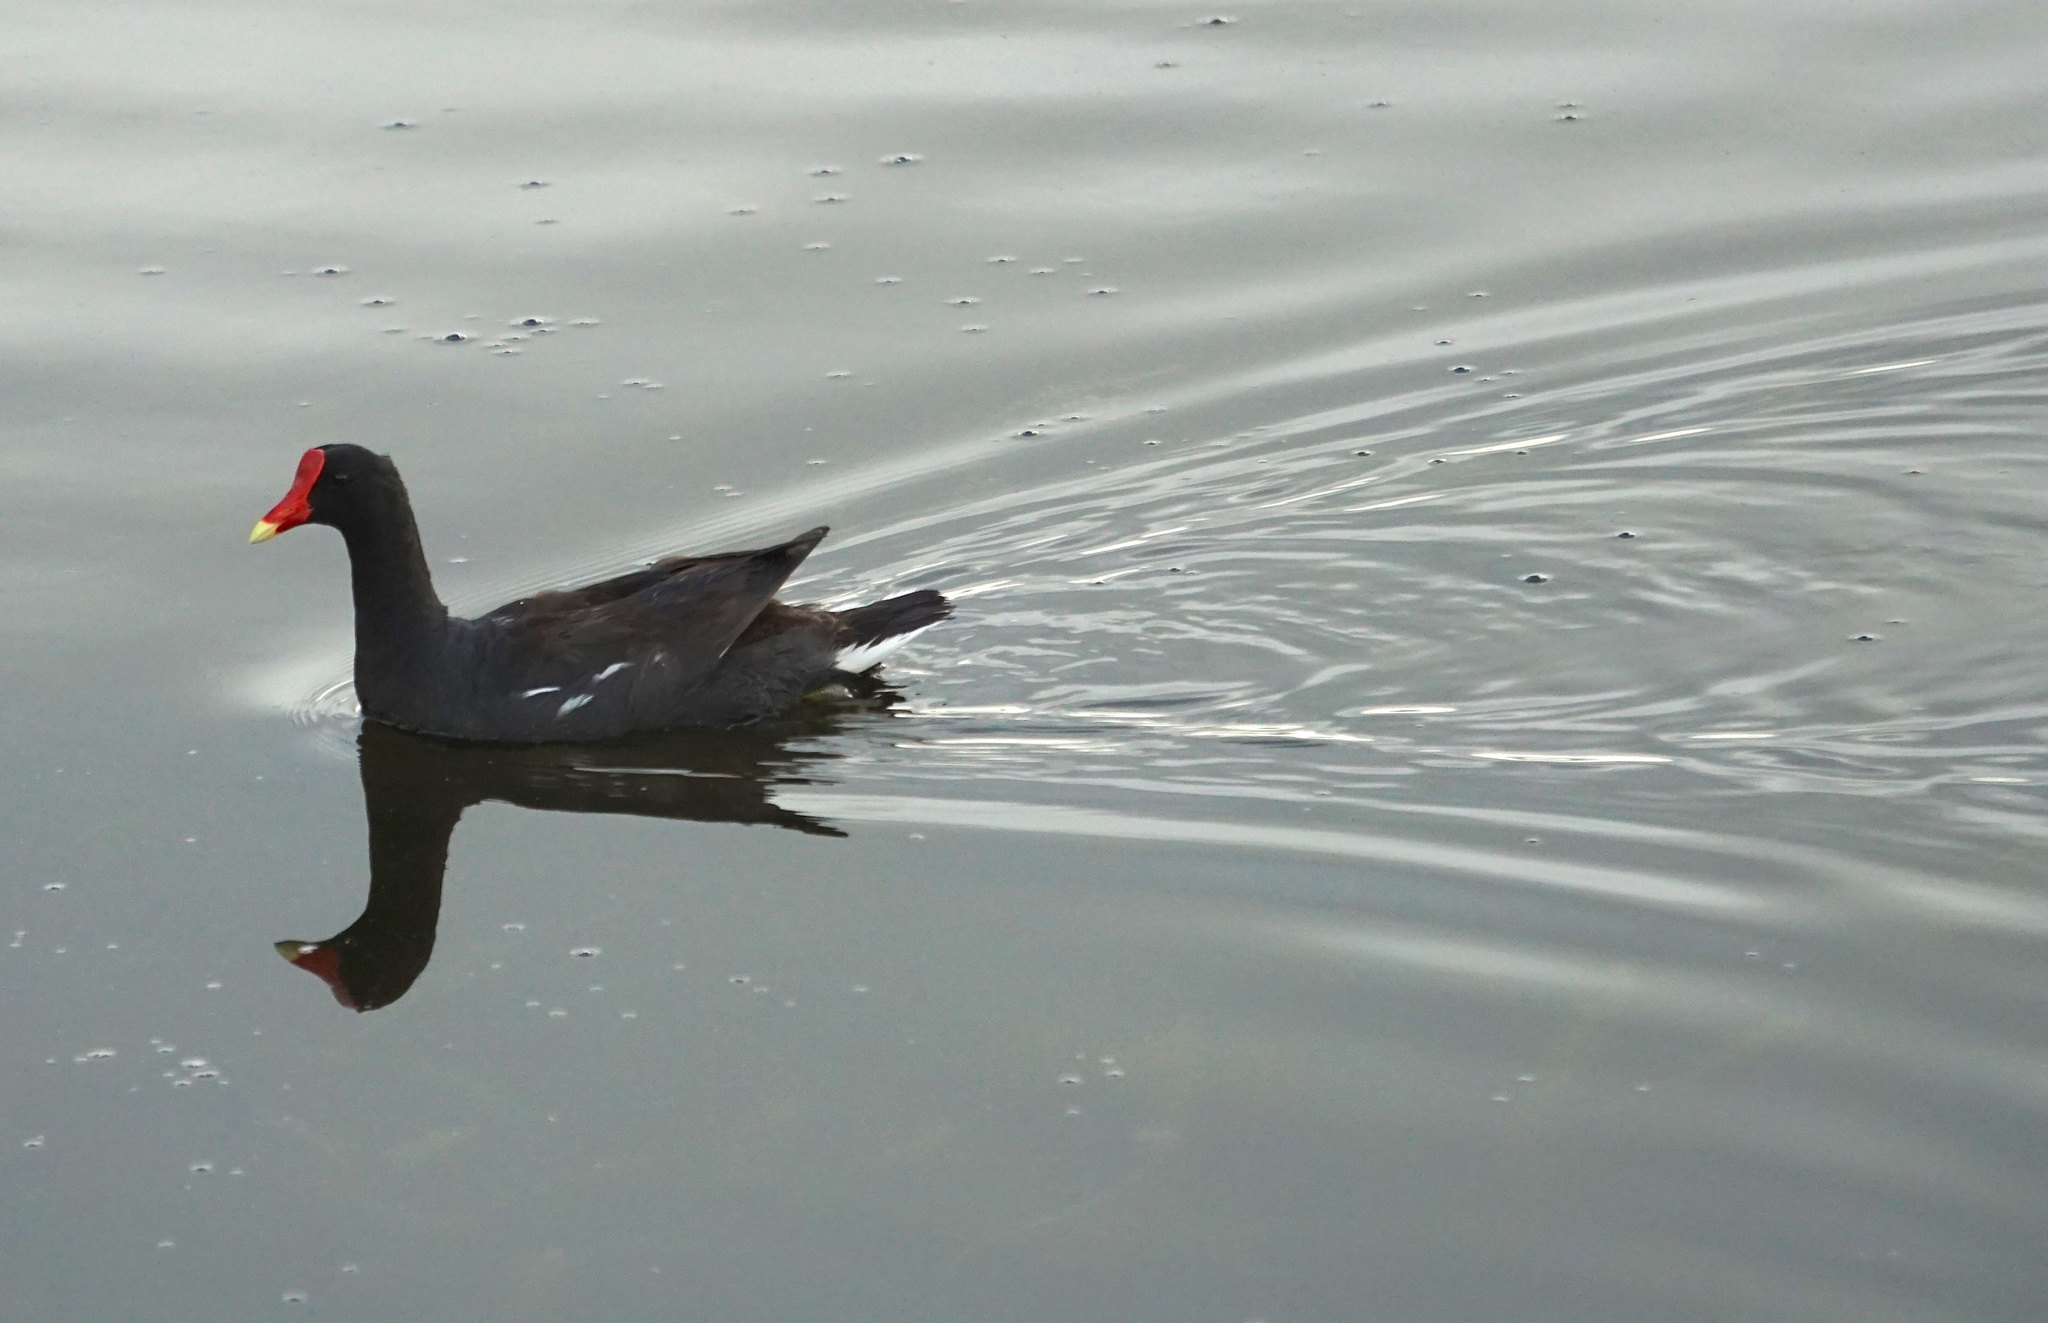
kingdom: Animalia
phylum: Chordata
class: Aves
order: Gruiformes
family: Rallidae
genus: Gallinula
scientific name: Gallinula chloropus
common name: Common moorhen
